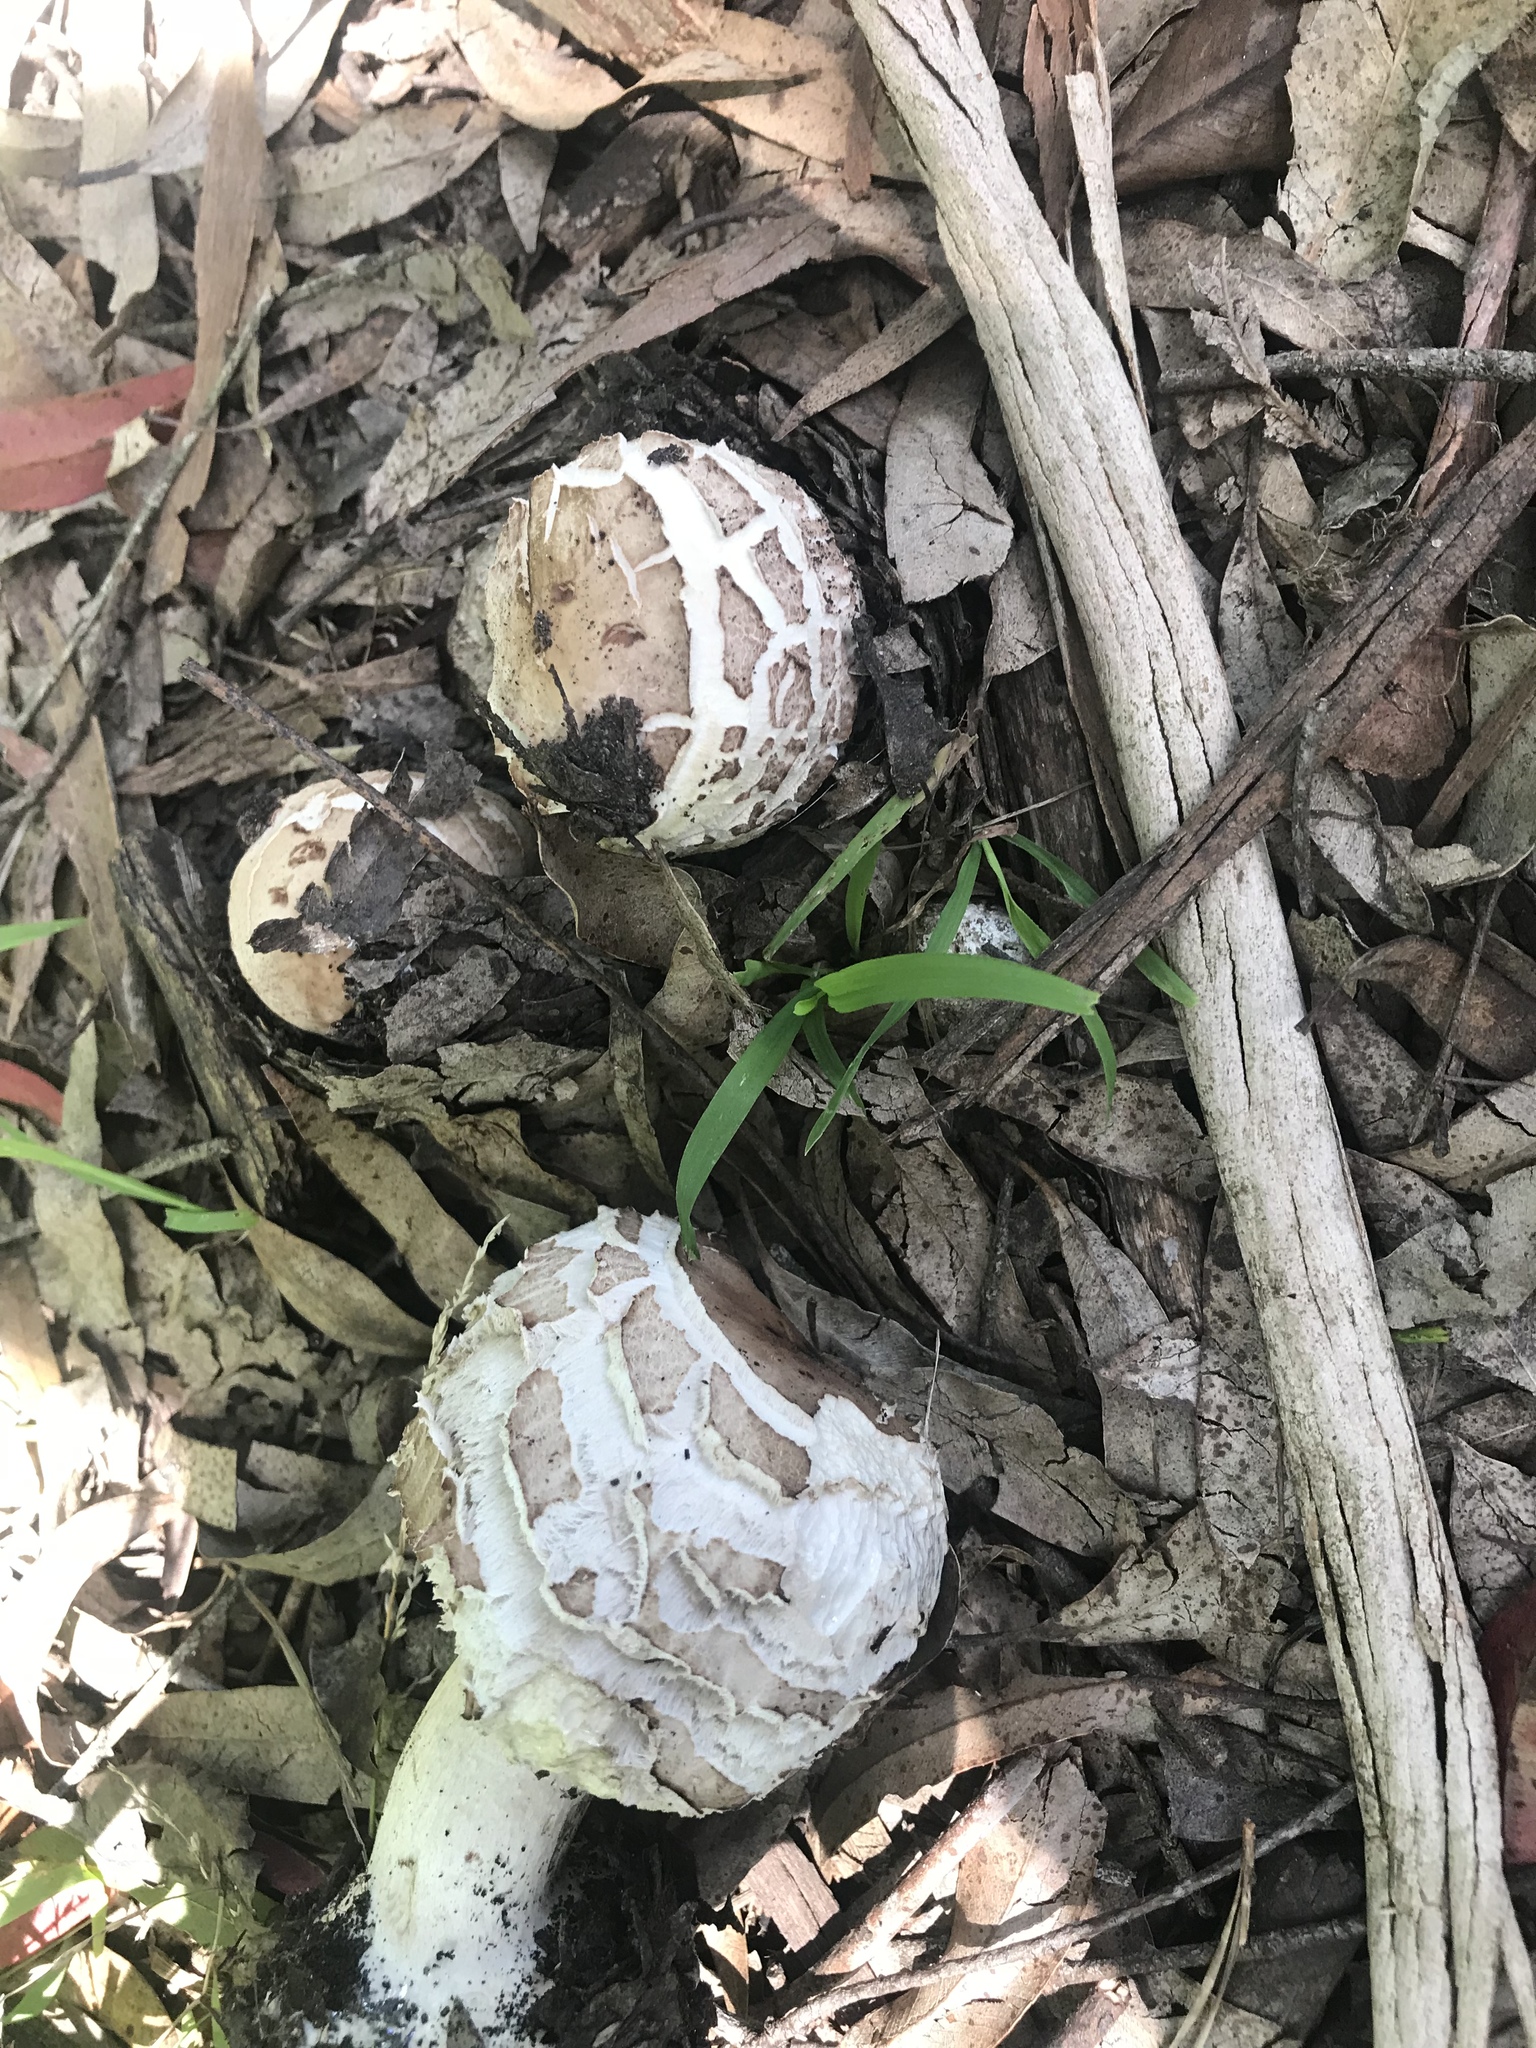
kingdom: Fungi
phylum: Basidiomycota
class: Agaricomycetes
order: Agaricales
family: Agaricaceae
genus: Chlorophyllum
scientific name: Chlorophyllum brunneum
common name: Brown parasol
